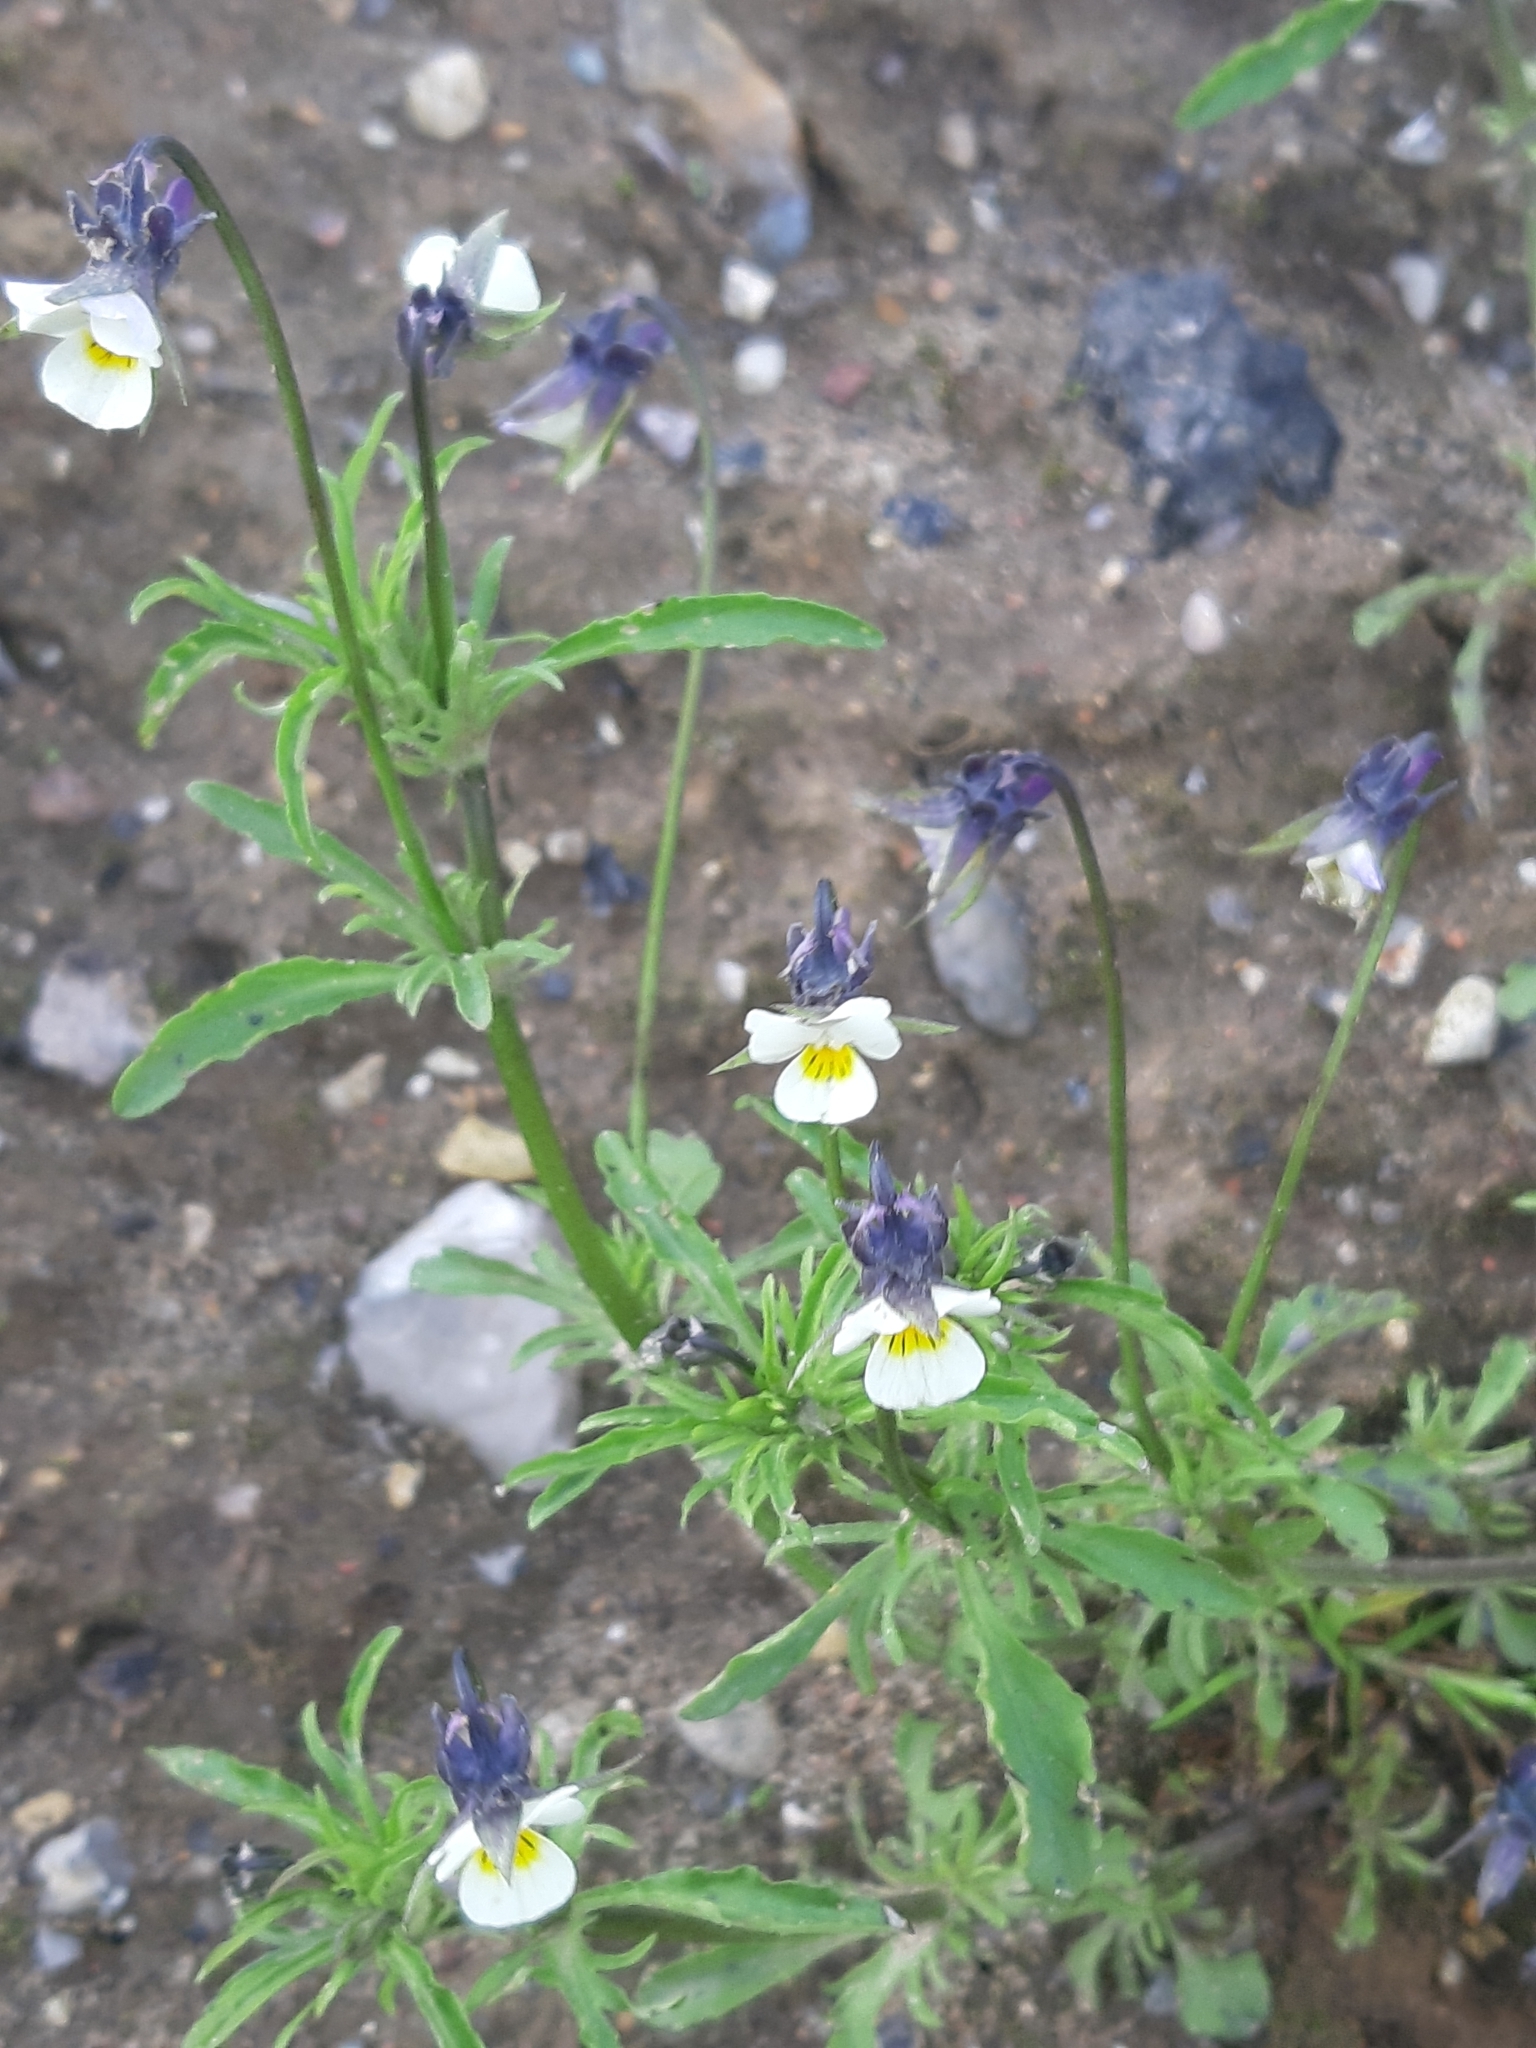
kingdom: Plantae
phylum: Tracheophyta
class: Magnoliopsida
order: Malpighiales
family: Violaceae
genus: Viola
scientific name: Viola arvensis
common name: Field pansy
